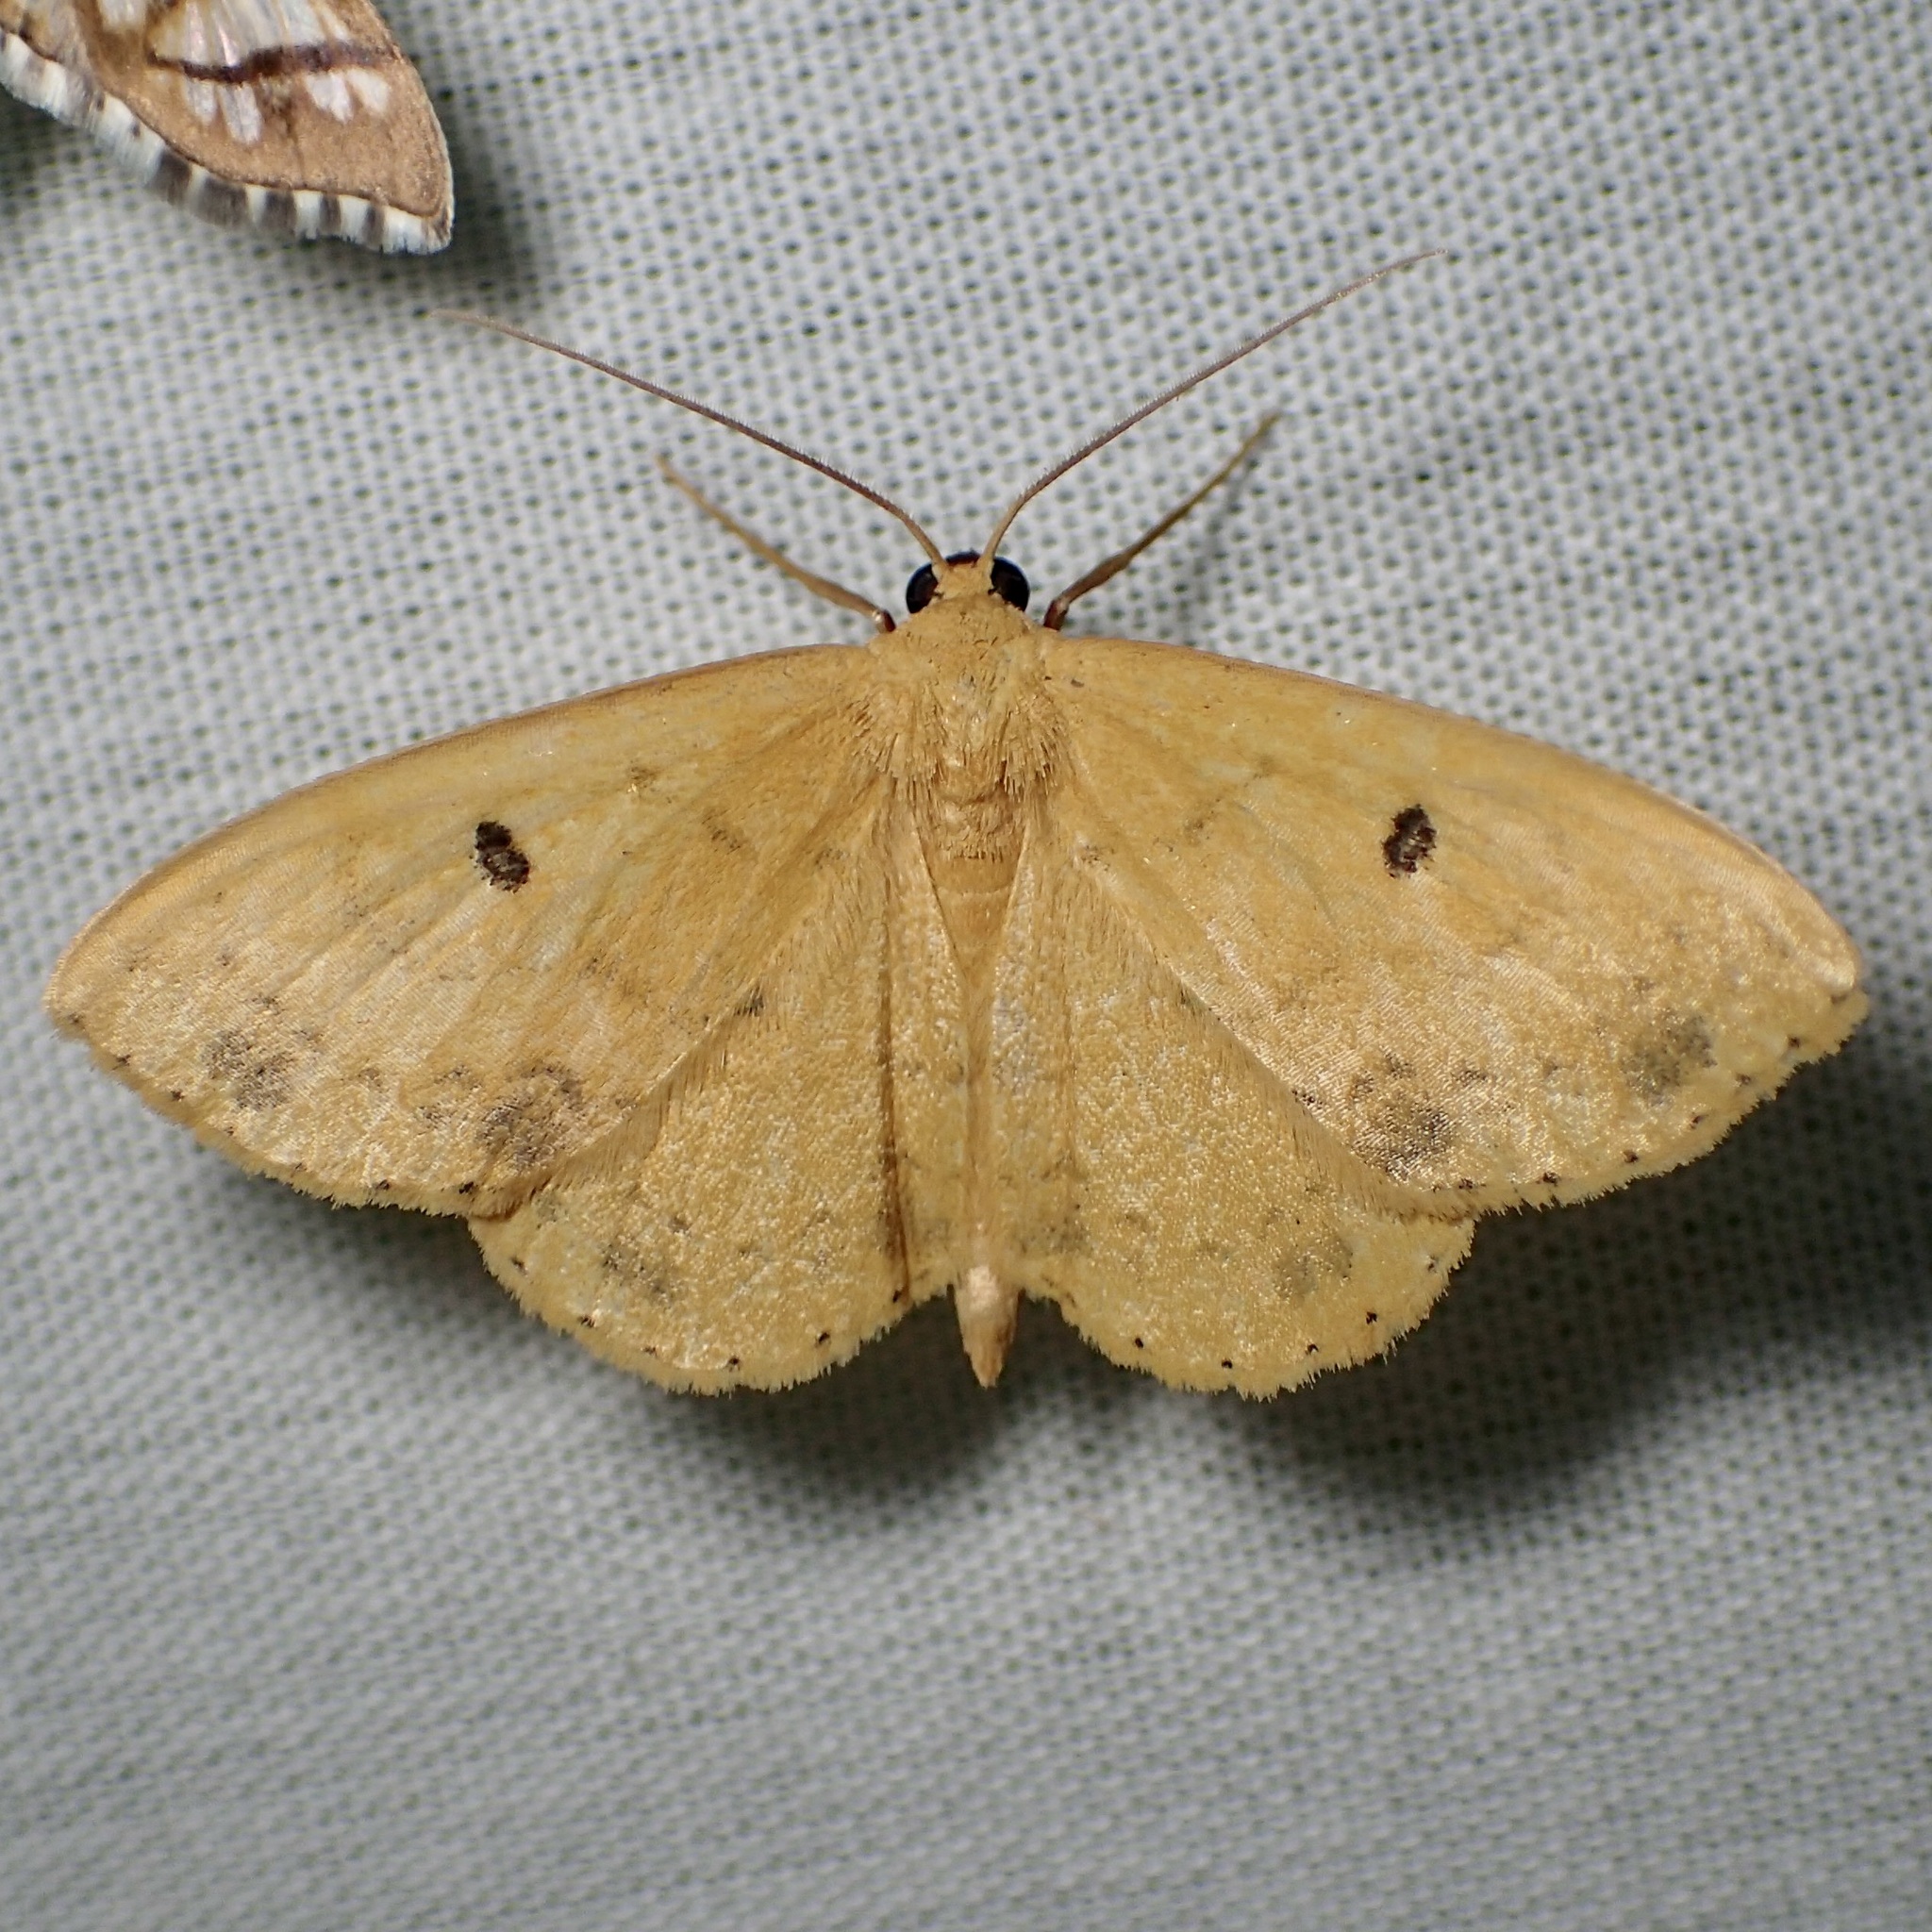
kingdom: Animalia
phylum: Arthropoda
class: Insecta
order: Lepidoptera
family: Geometridae
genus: Semaeopus
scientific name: Semaeopus ella
